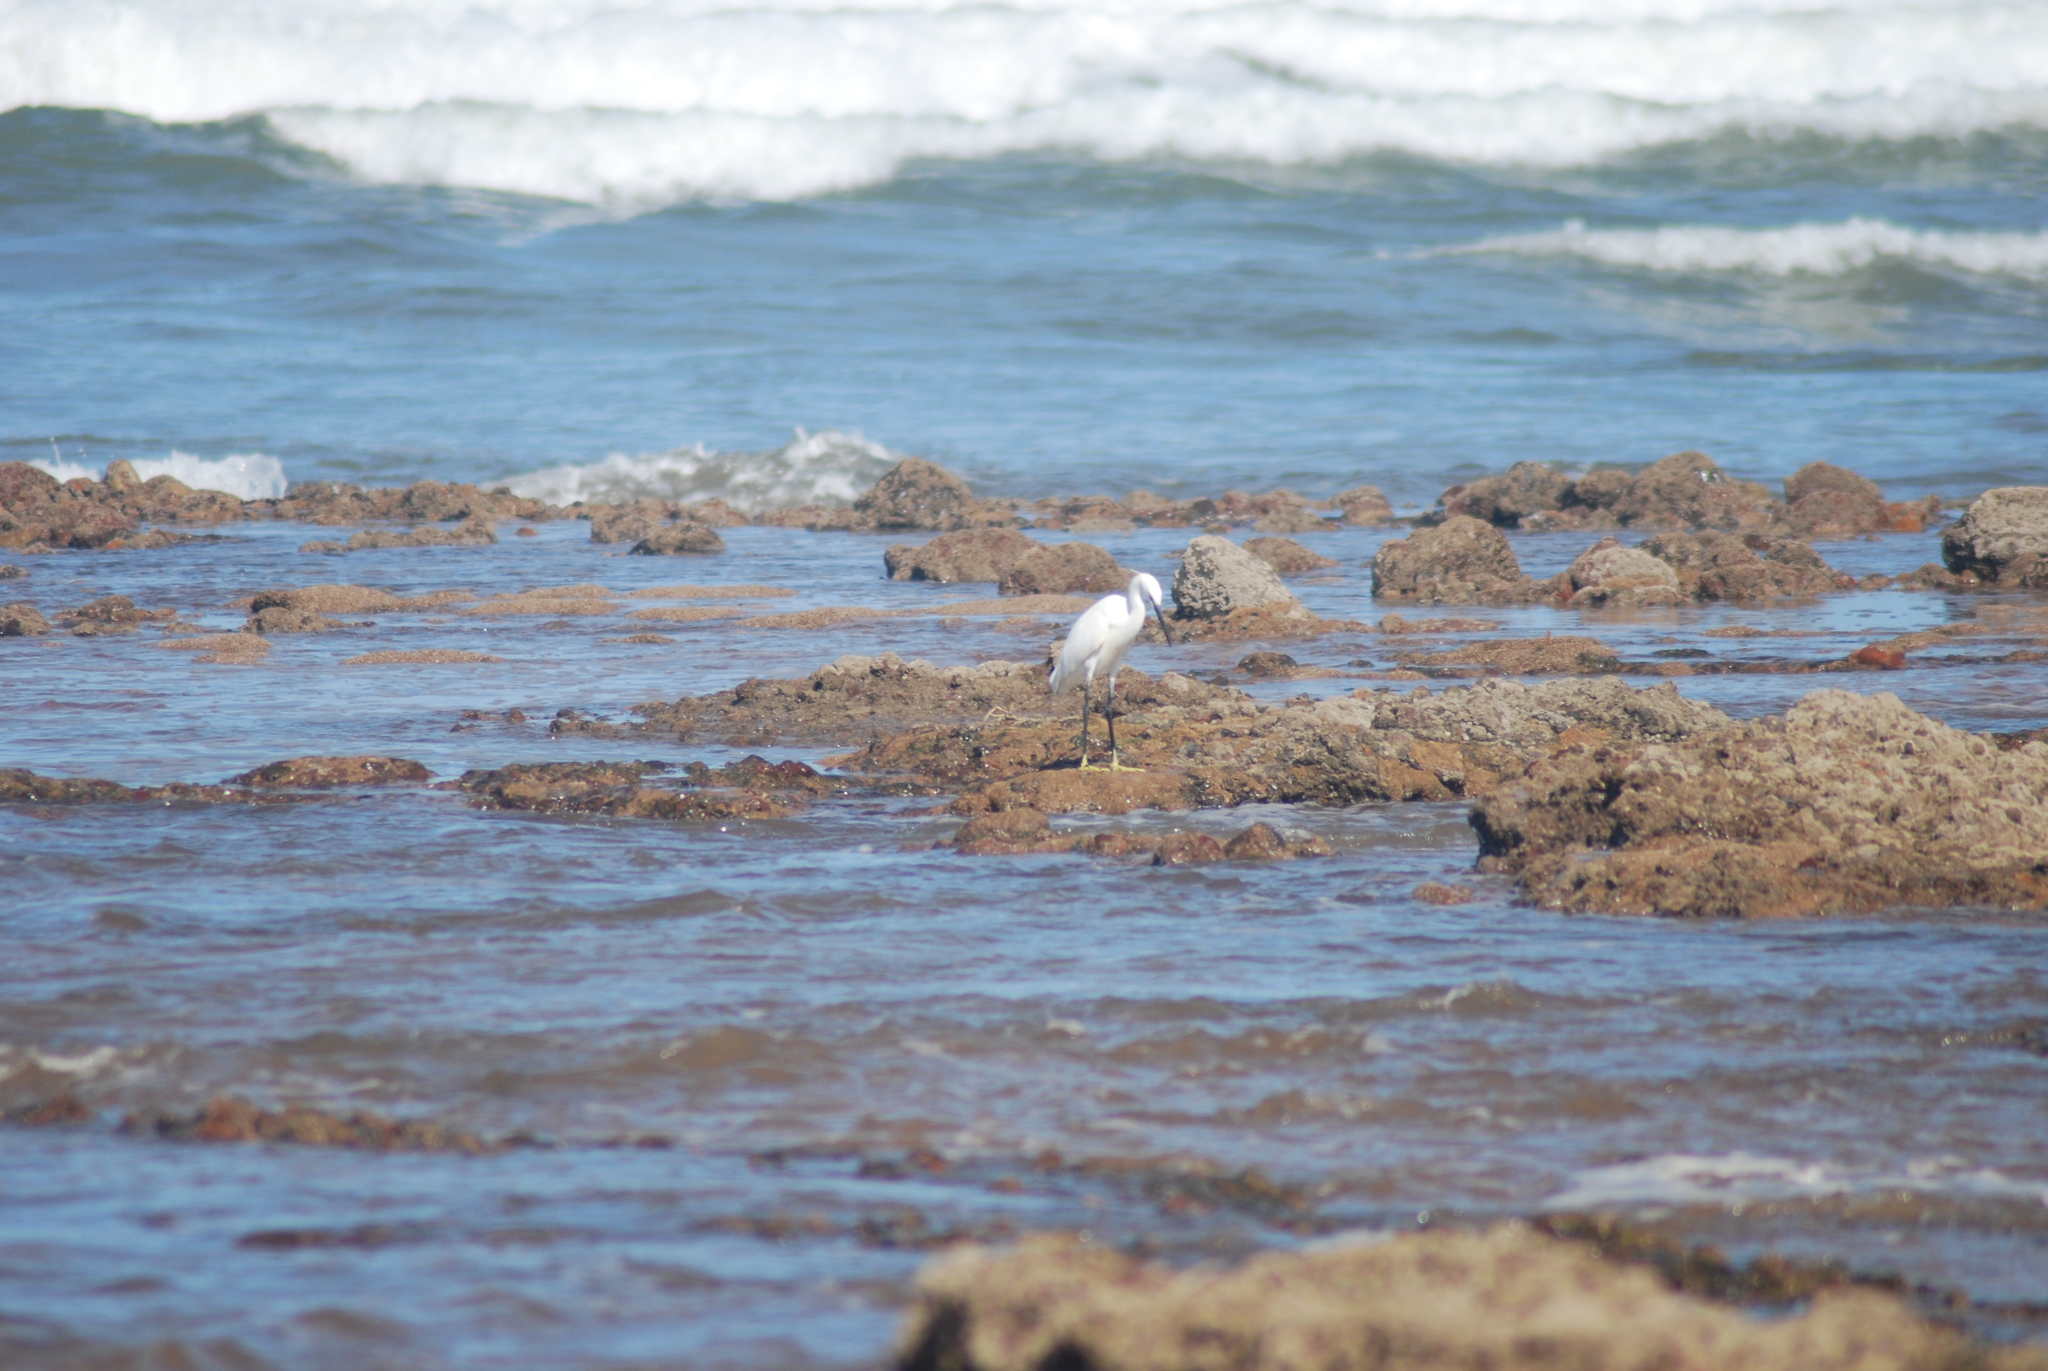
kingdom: Animalia
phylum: Chordata
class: Aves
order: Pelecaniformes
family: Ardeidae
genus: Egretta
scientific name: Egretta garzetta
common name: Little egret
